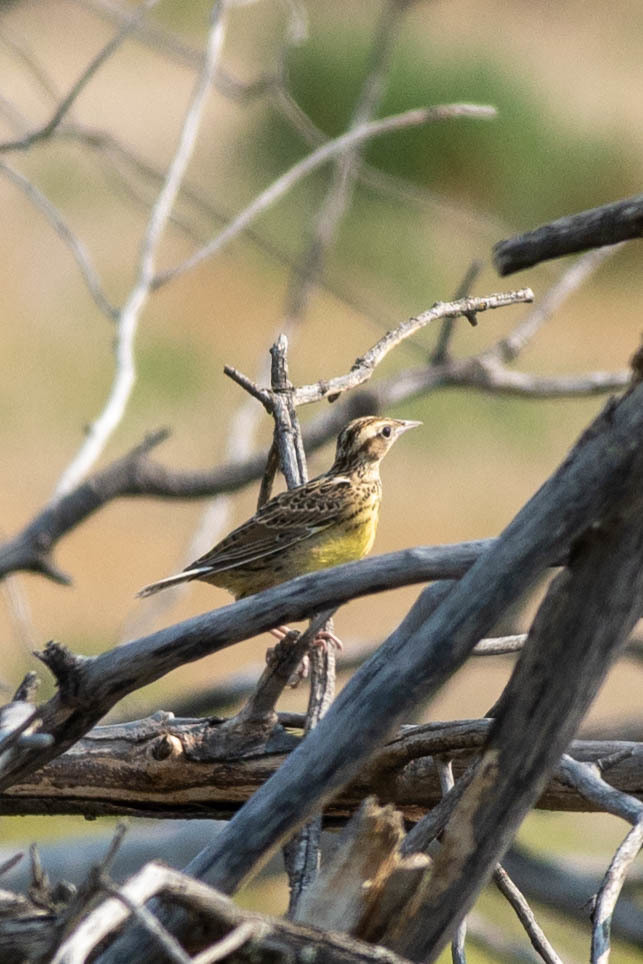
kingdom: Animalia
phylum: Chordata
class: Aves
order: Passeriformes
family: Icteridae
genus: Sturnella
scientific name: Sturnella neglecta
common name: Western meadowlark
